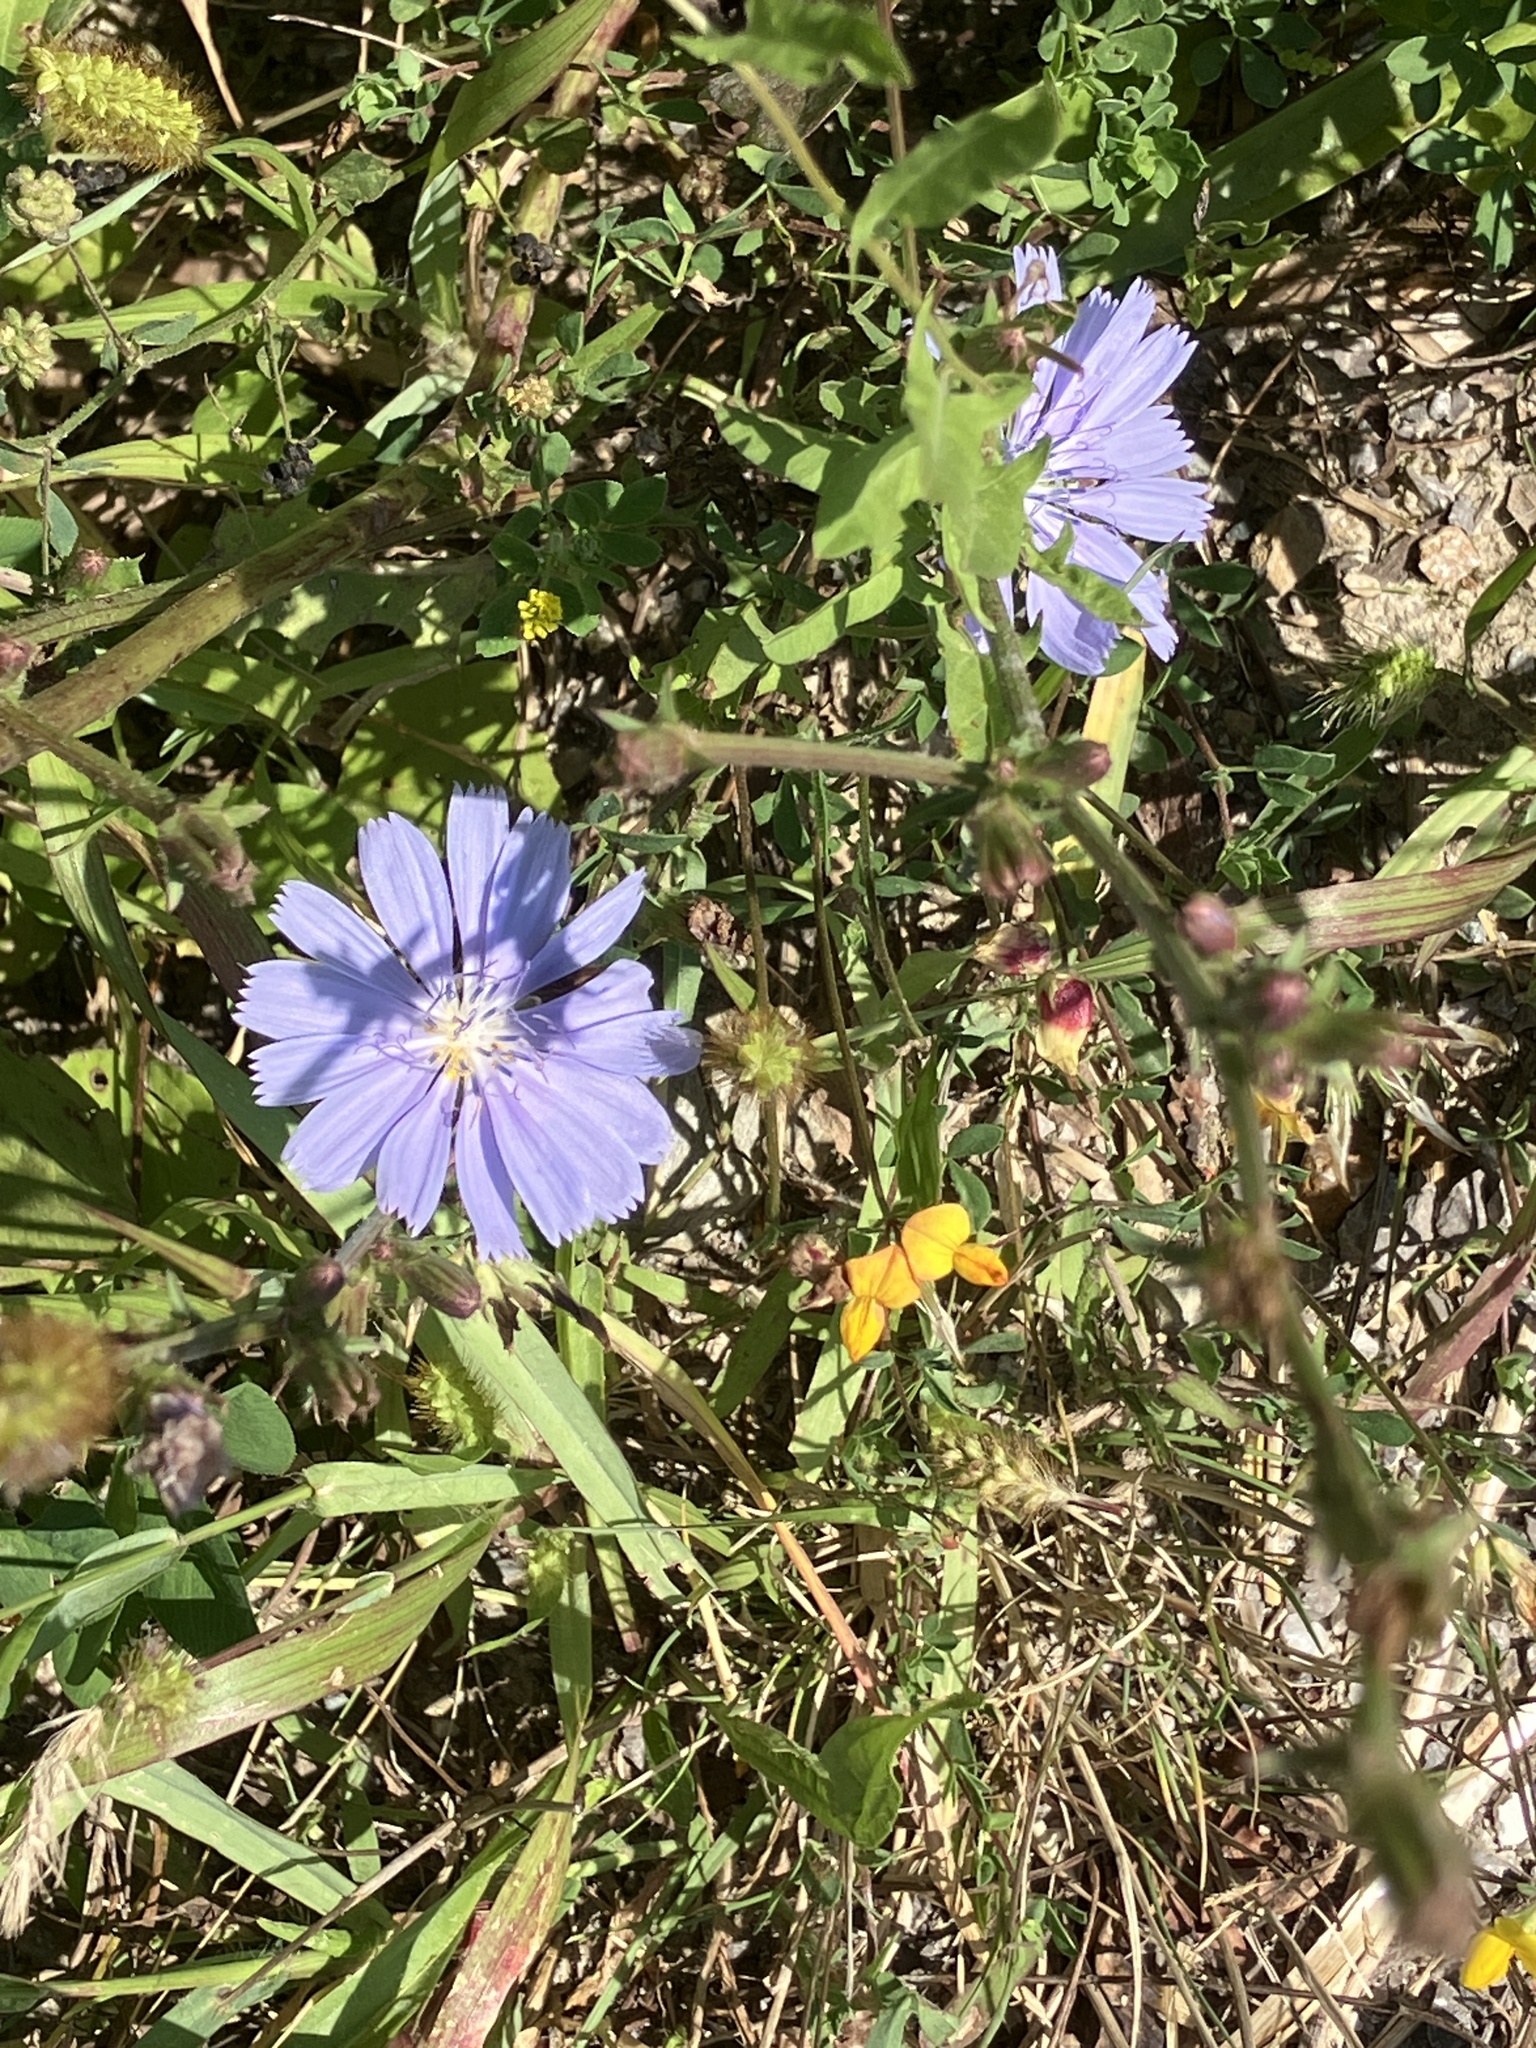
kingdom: Plantae
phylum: Tracheophyta
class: Magnoliopsida
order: Asterales
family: Asteraceae
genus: Cichorium
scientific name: Cichorium intybus
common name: Chicory
